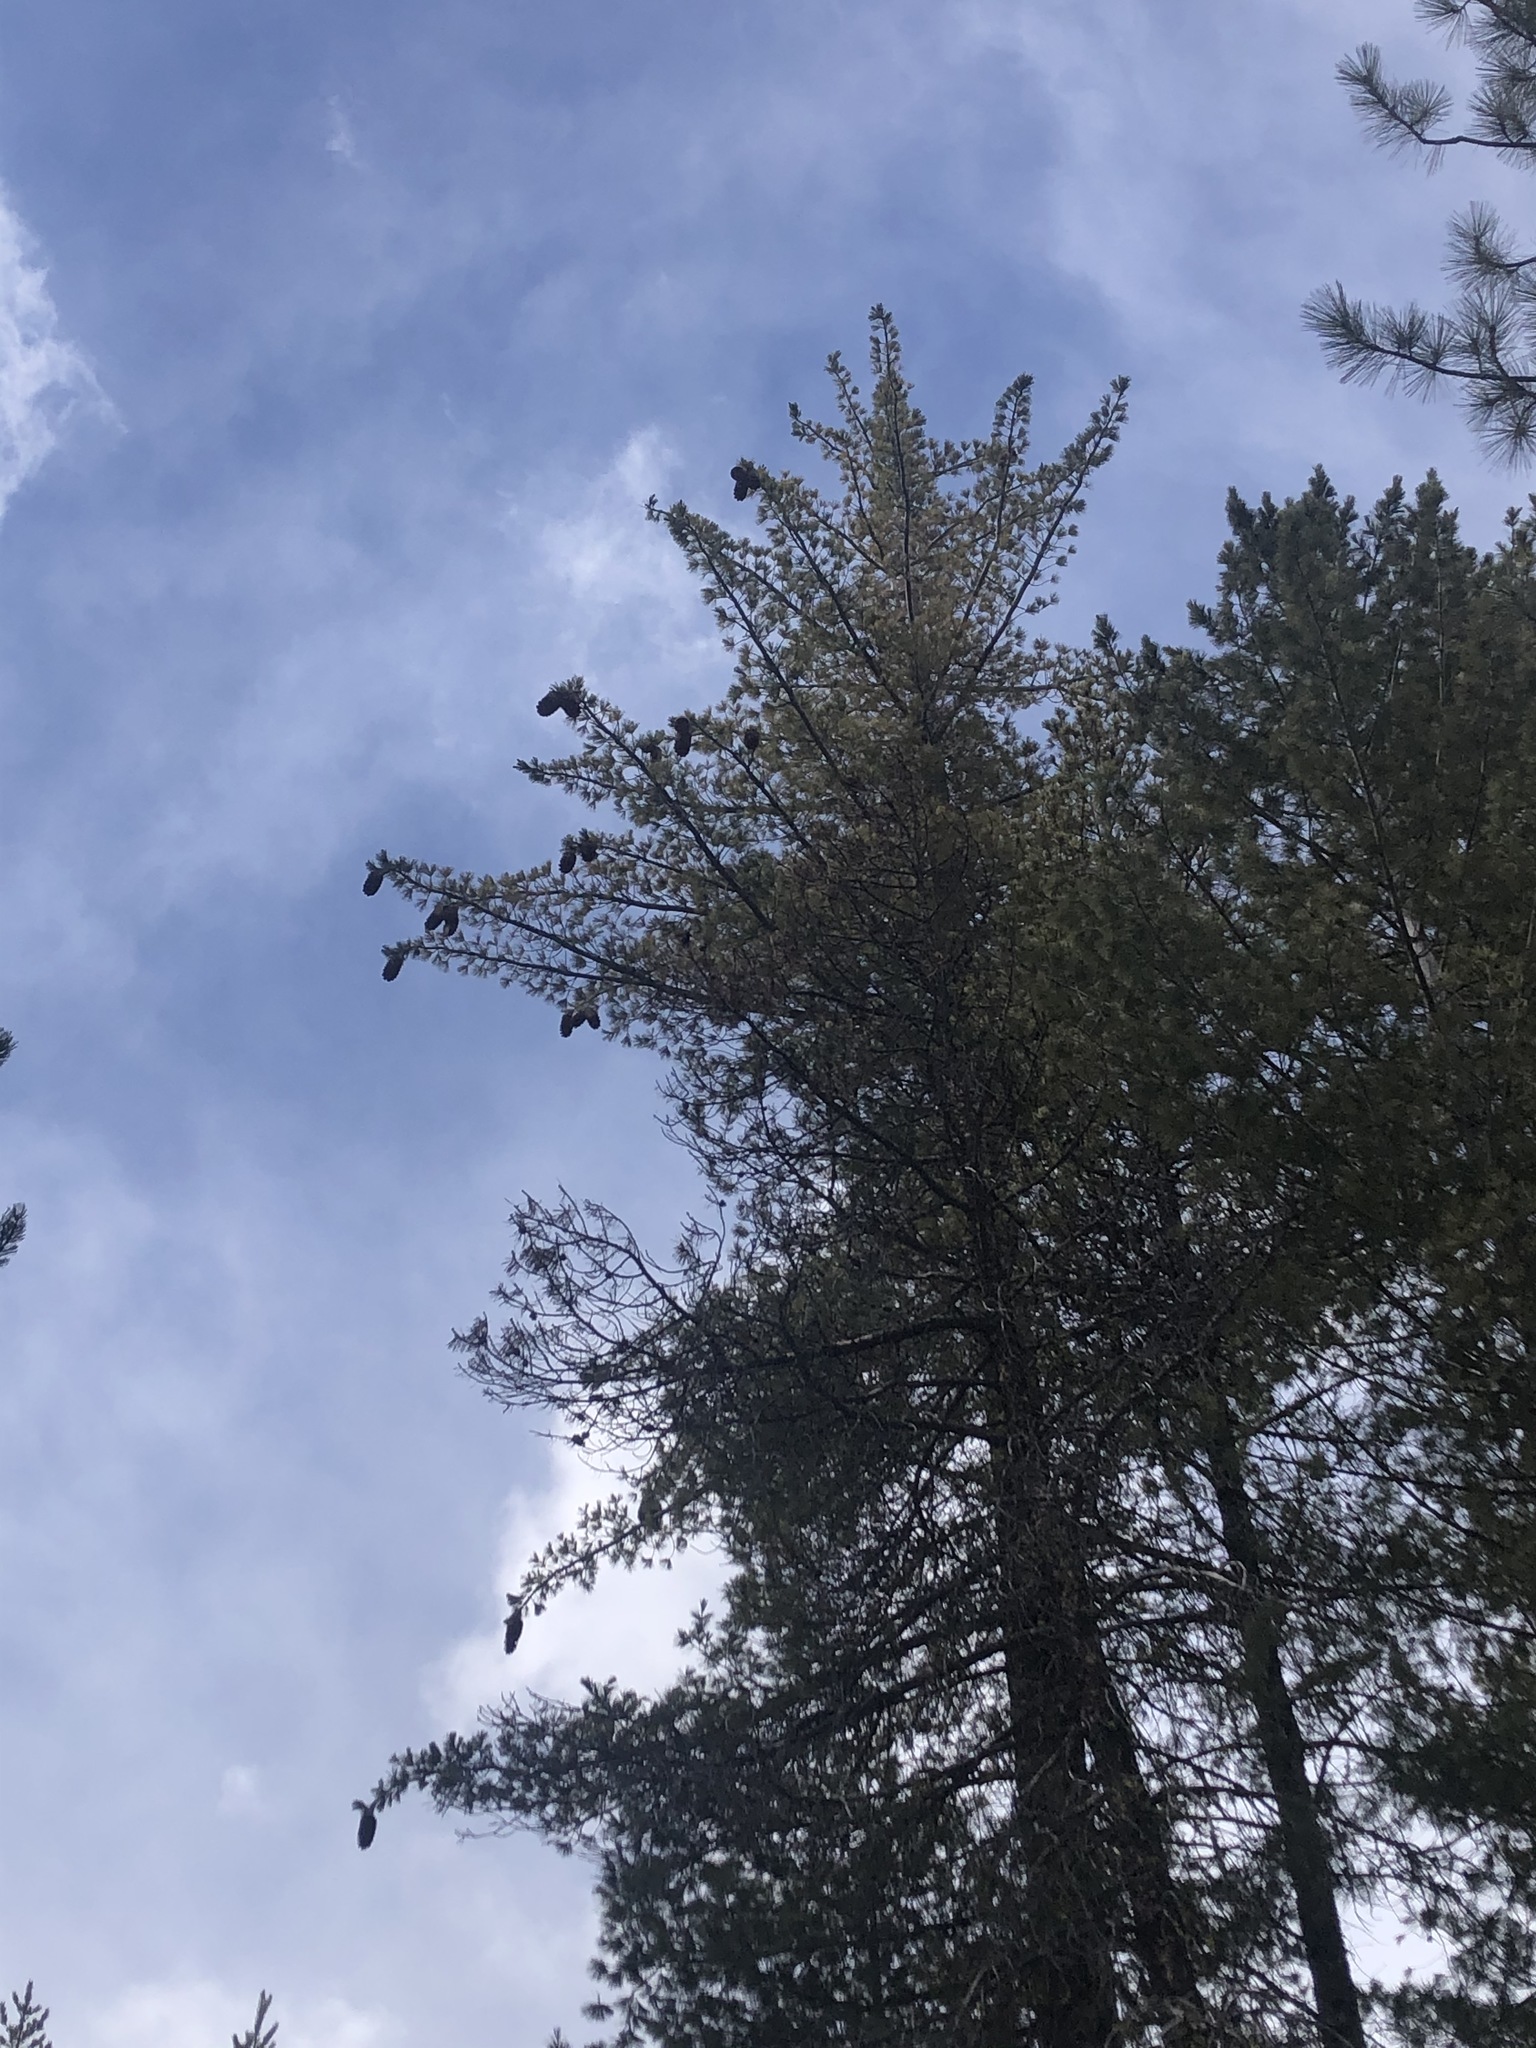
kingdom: Plantae
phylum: Tracheophyta
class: Pinopsida
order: Pinales
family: Pinaceae
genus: Pinus
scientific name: Pinus lambertiana
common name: Sugar pine
